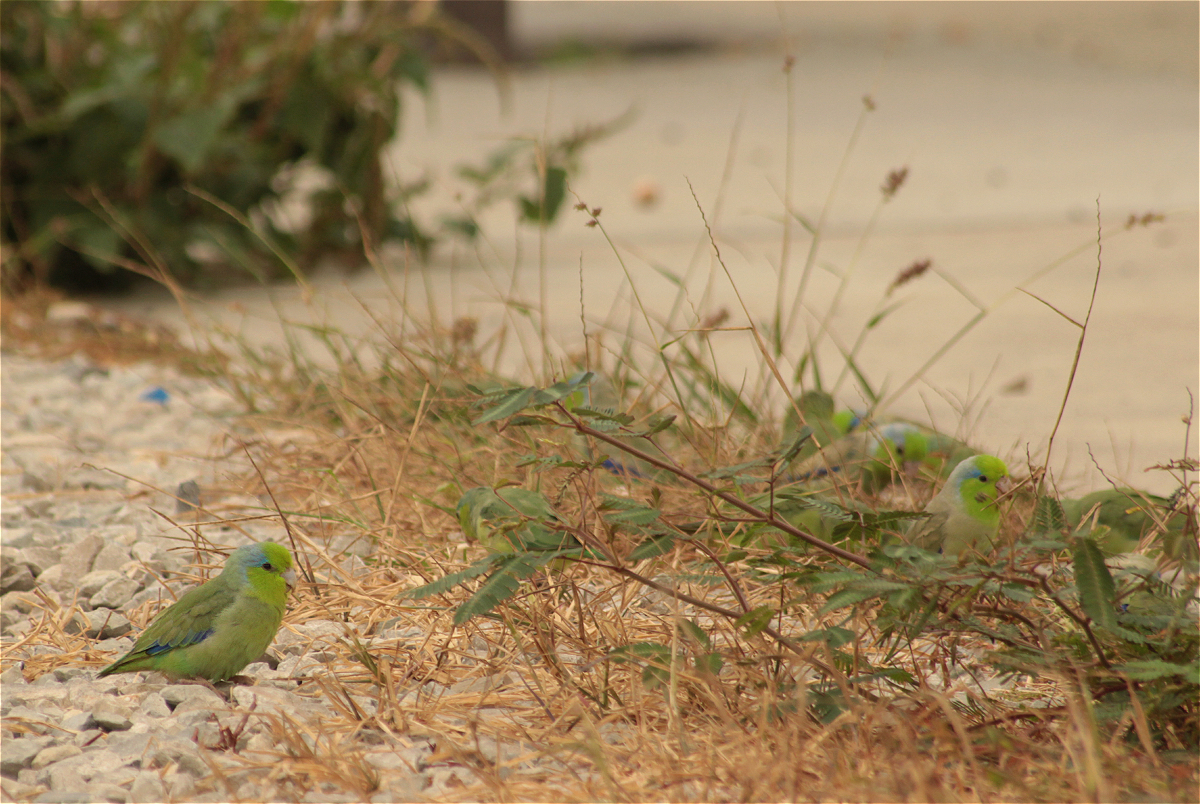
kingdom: Animalia
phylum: Chordata
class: Aves
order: Psittaciformes
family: Psittacidae
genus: Forpus
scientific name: Forpus coelestis
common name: Pacific parrotlet
